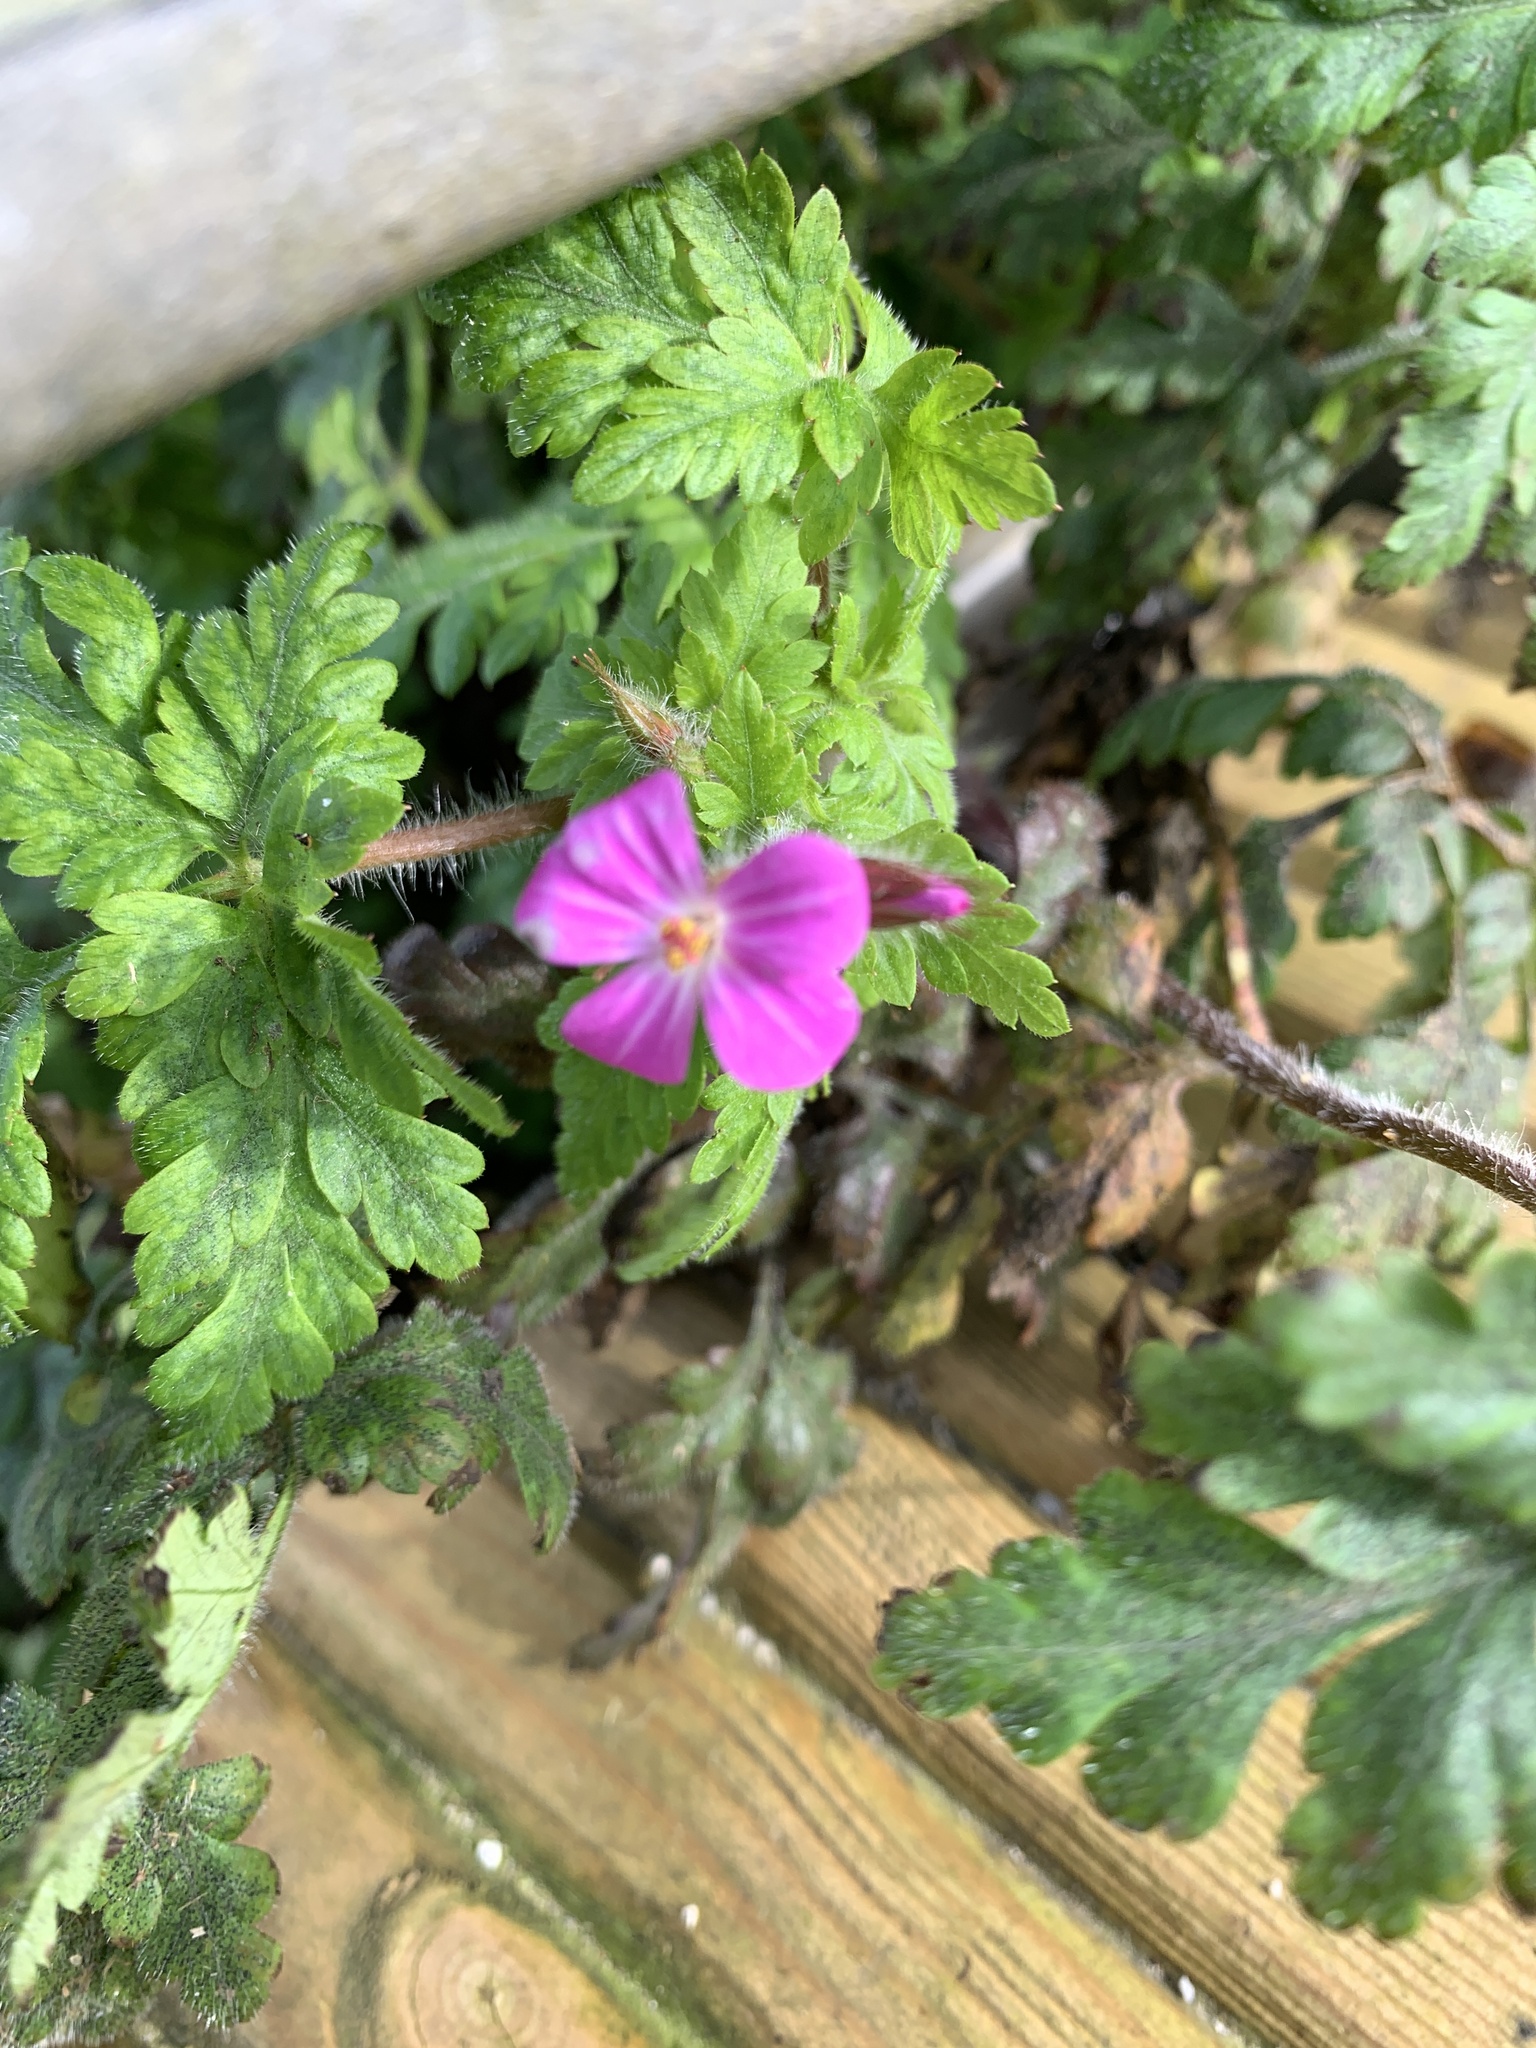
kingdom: Plantae
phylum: Tracheophyta
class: Magnoliopsida
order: Geraniales
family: Geraniaceae
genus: Geranium
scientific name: Geranium robertianum
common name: Herb-robert
